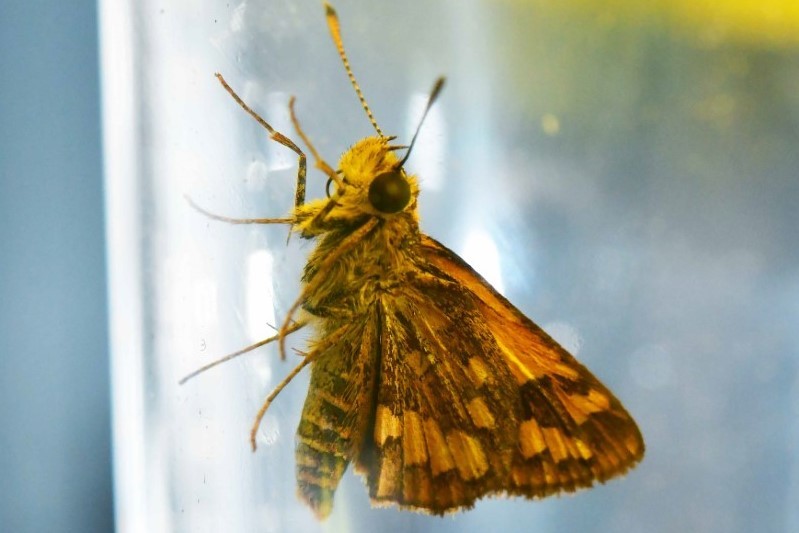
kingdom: Animalia
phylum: Arthropoda
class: Insecta
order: Lepidoptera
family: Hesperiidae
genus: Suniana
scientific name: Suniana sunias
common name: Wide-brand grass-dart
